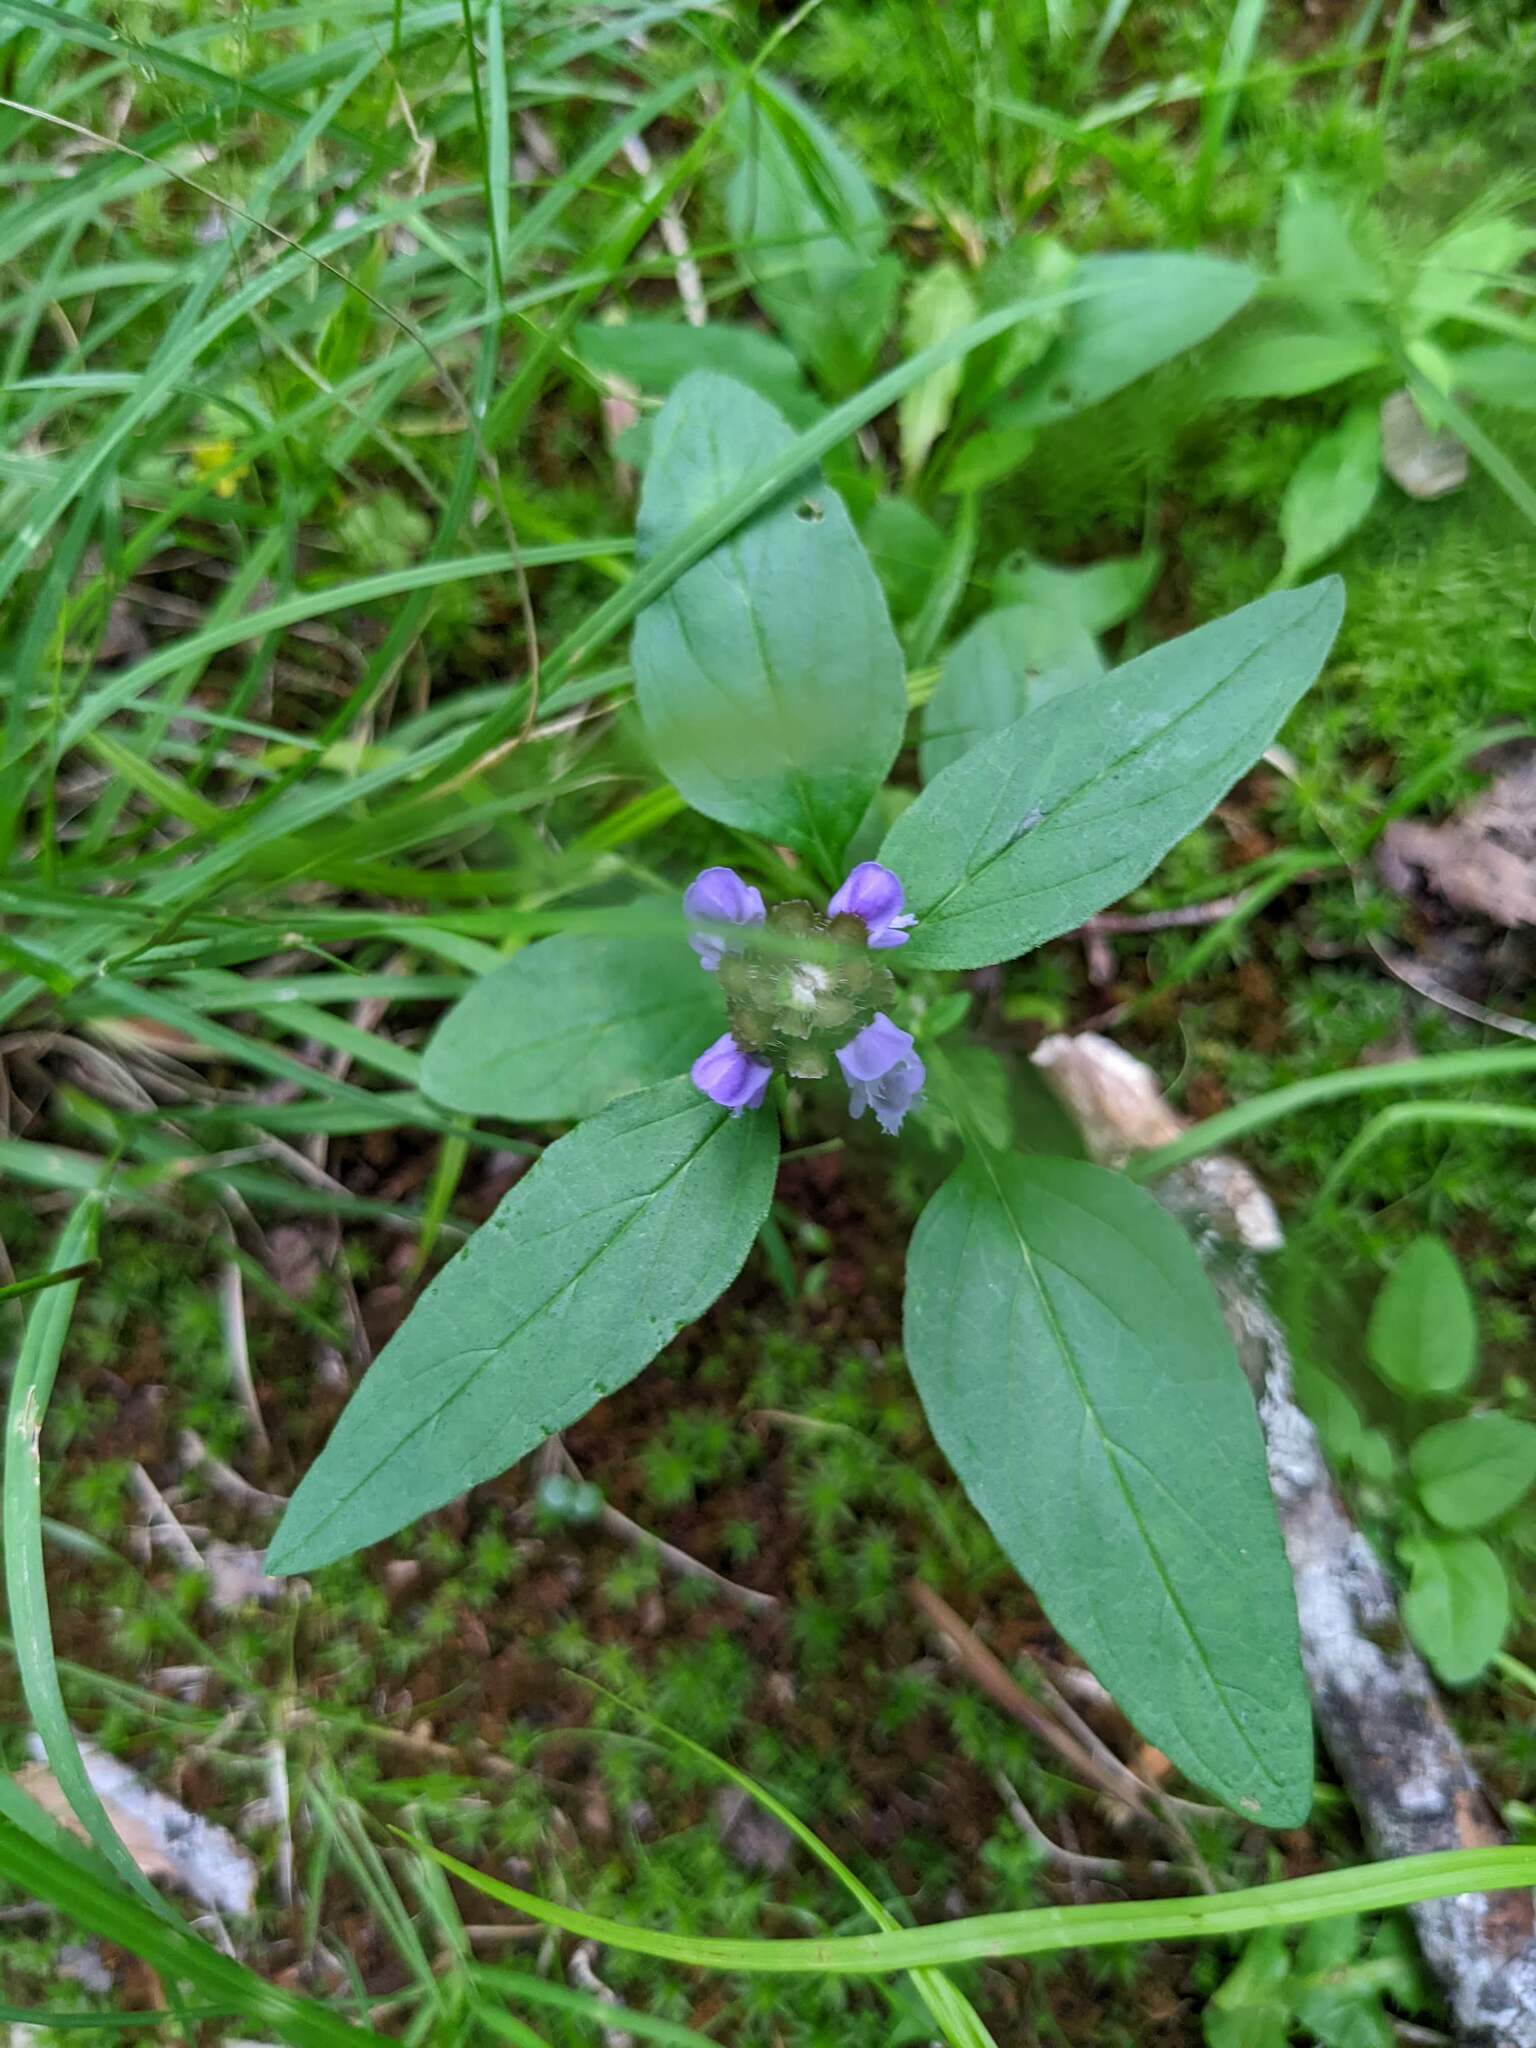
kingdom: Plantae
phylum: Tracheophyta
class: Magnoliopsida
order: Lamiales
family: Lamiaceae
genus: Prunella
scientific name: Prunella vulgaris
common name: Heal-all
